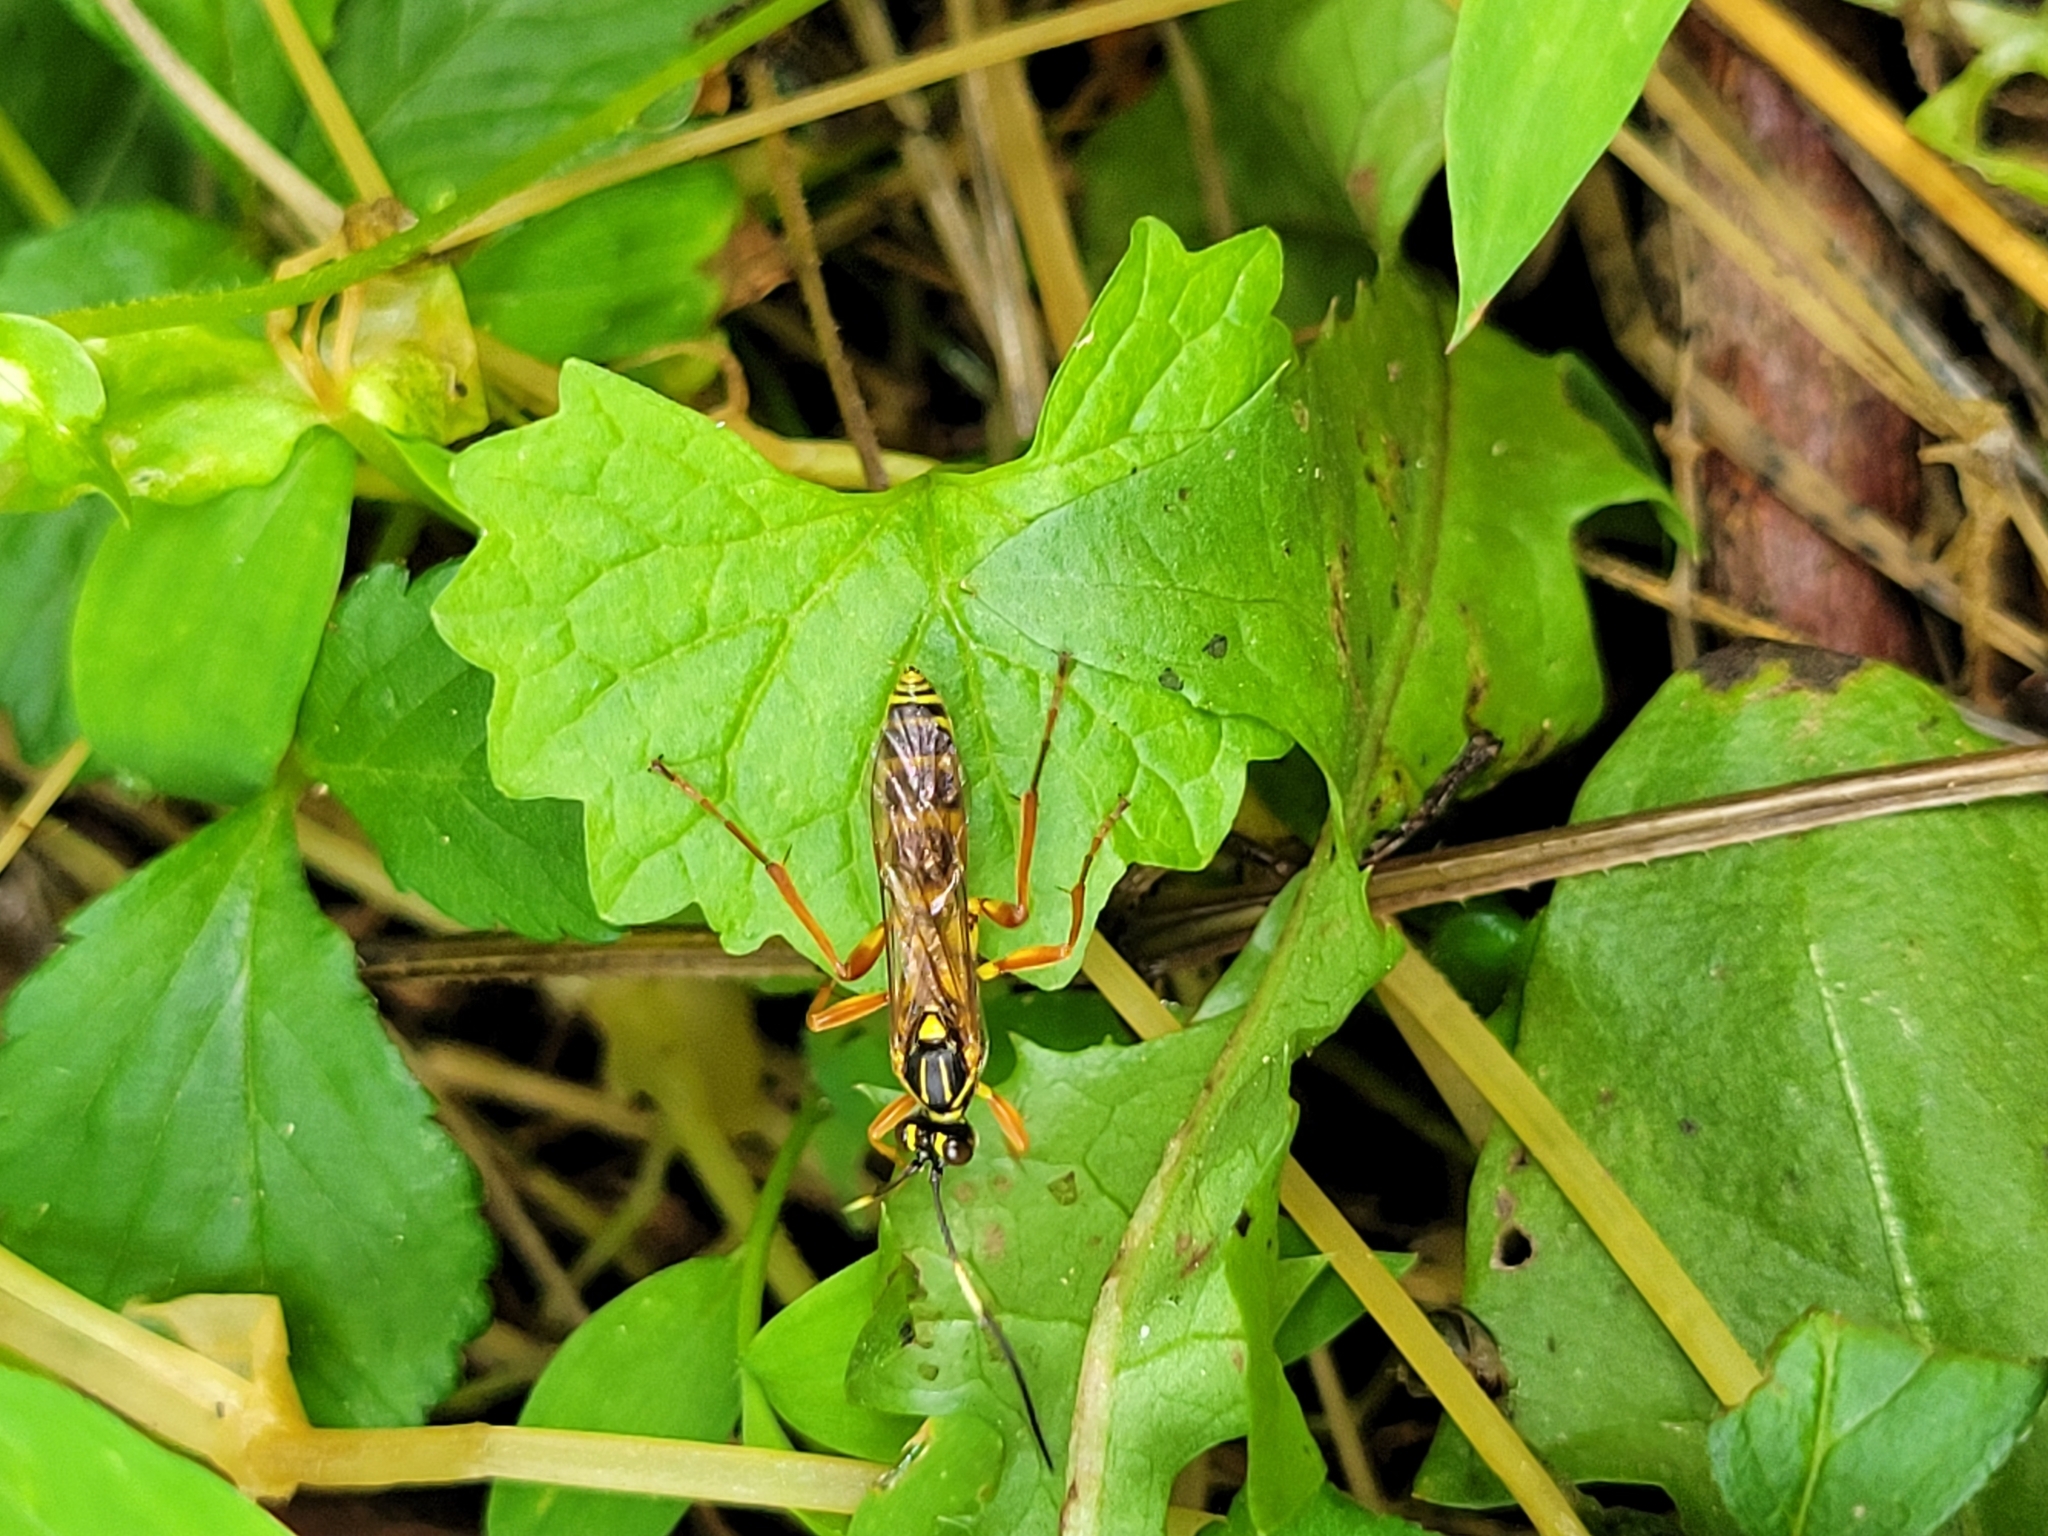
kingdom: Animalia
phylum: Arthropoda
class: Insecta
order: Hymenoptera
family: Ichneumonidae
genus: Setanta
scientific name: Setanta compta
